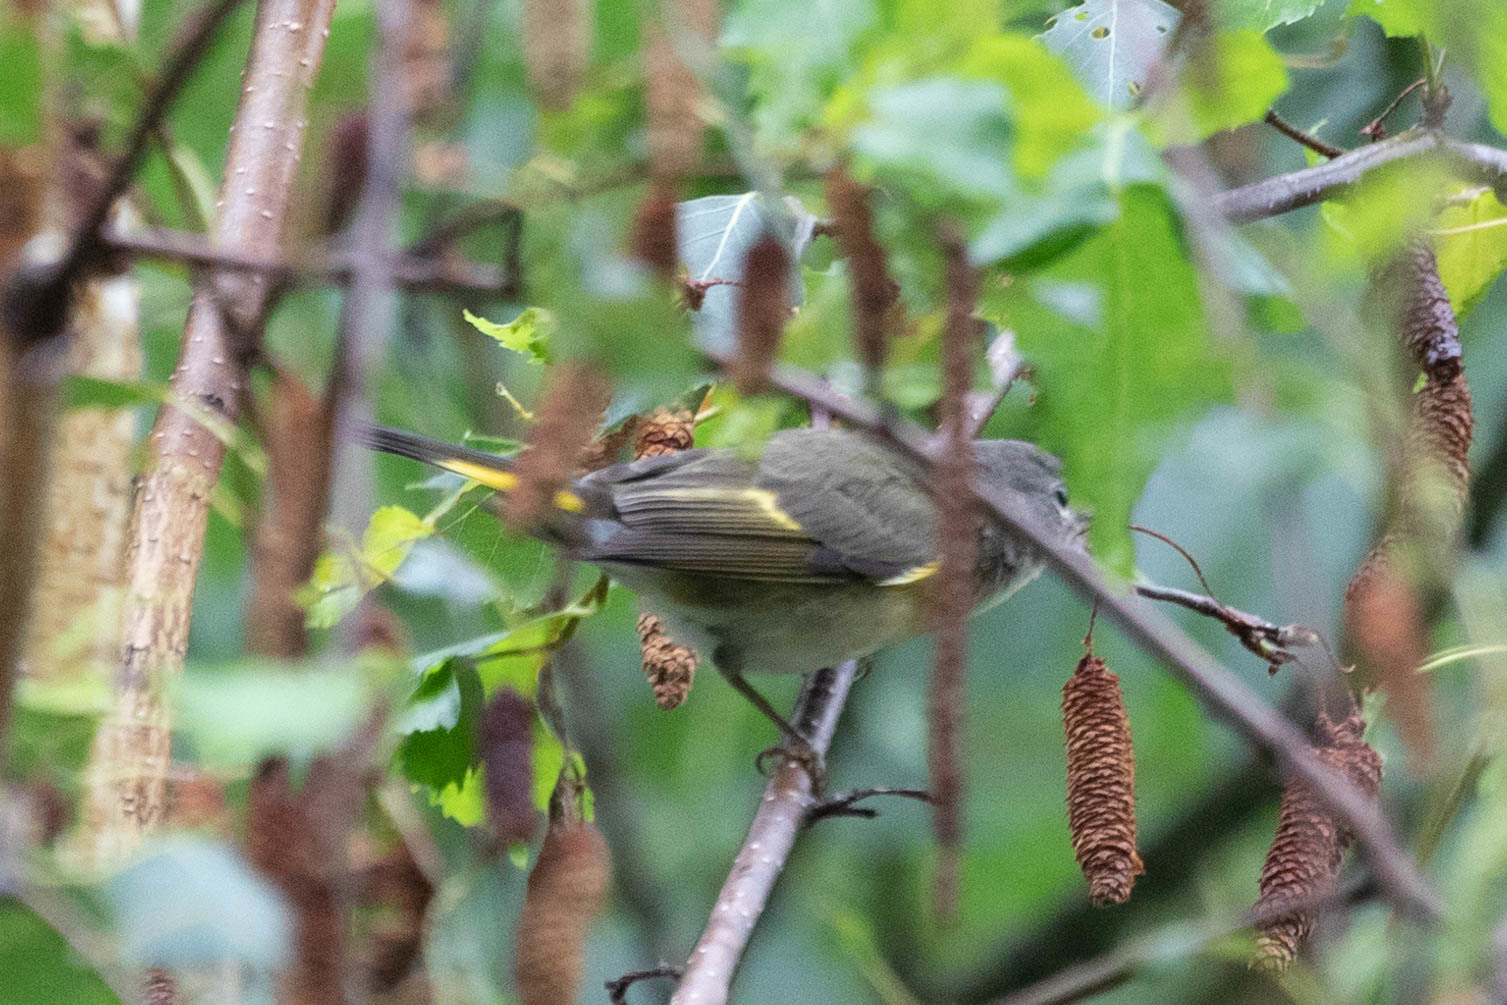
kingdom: Animalia
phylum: Chordata
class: Aves
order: Passeriformes
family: Parulidae
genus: Setophaga
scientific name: Setophaga ruticilla
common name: American redstart
